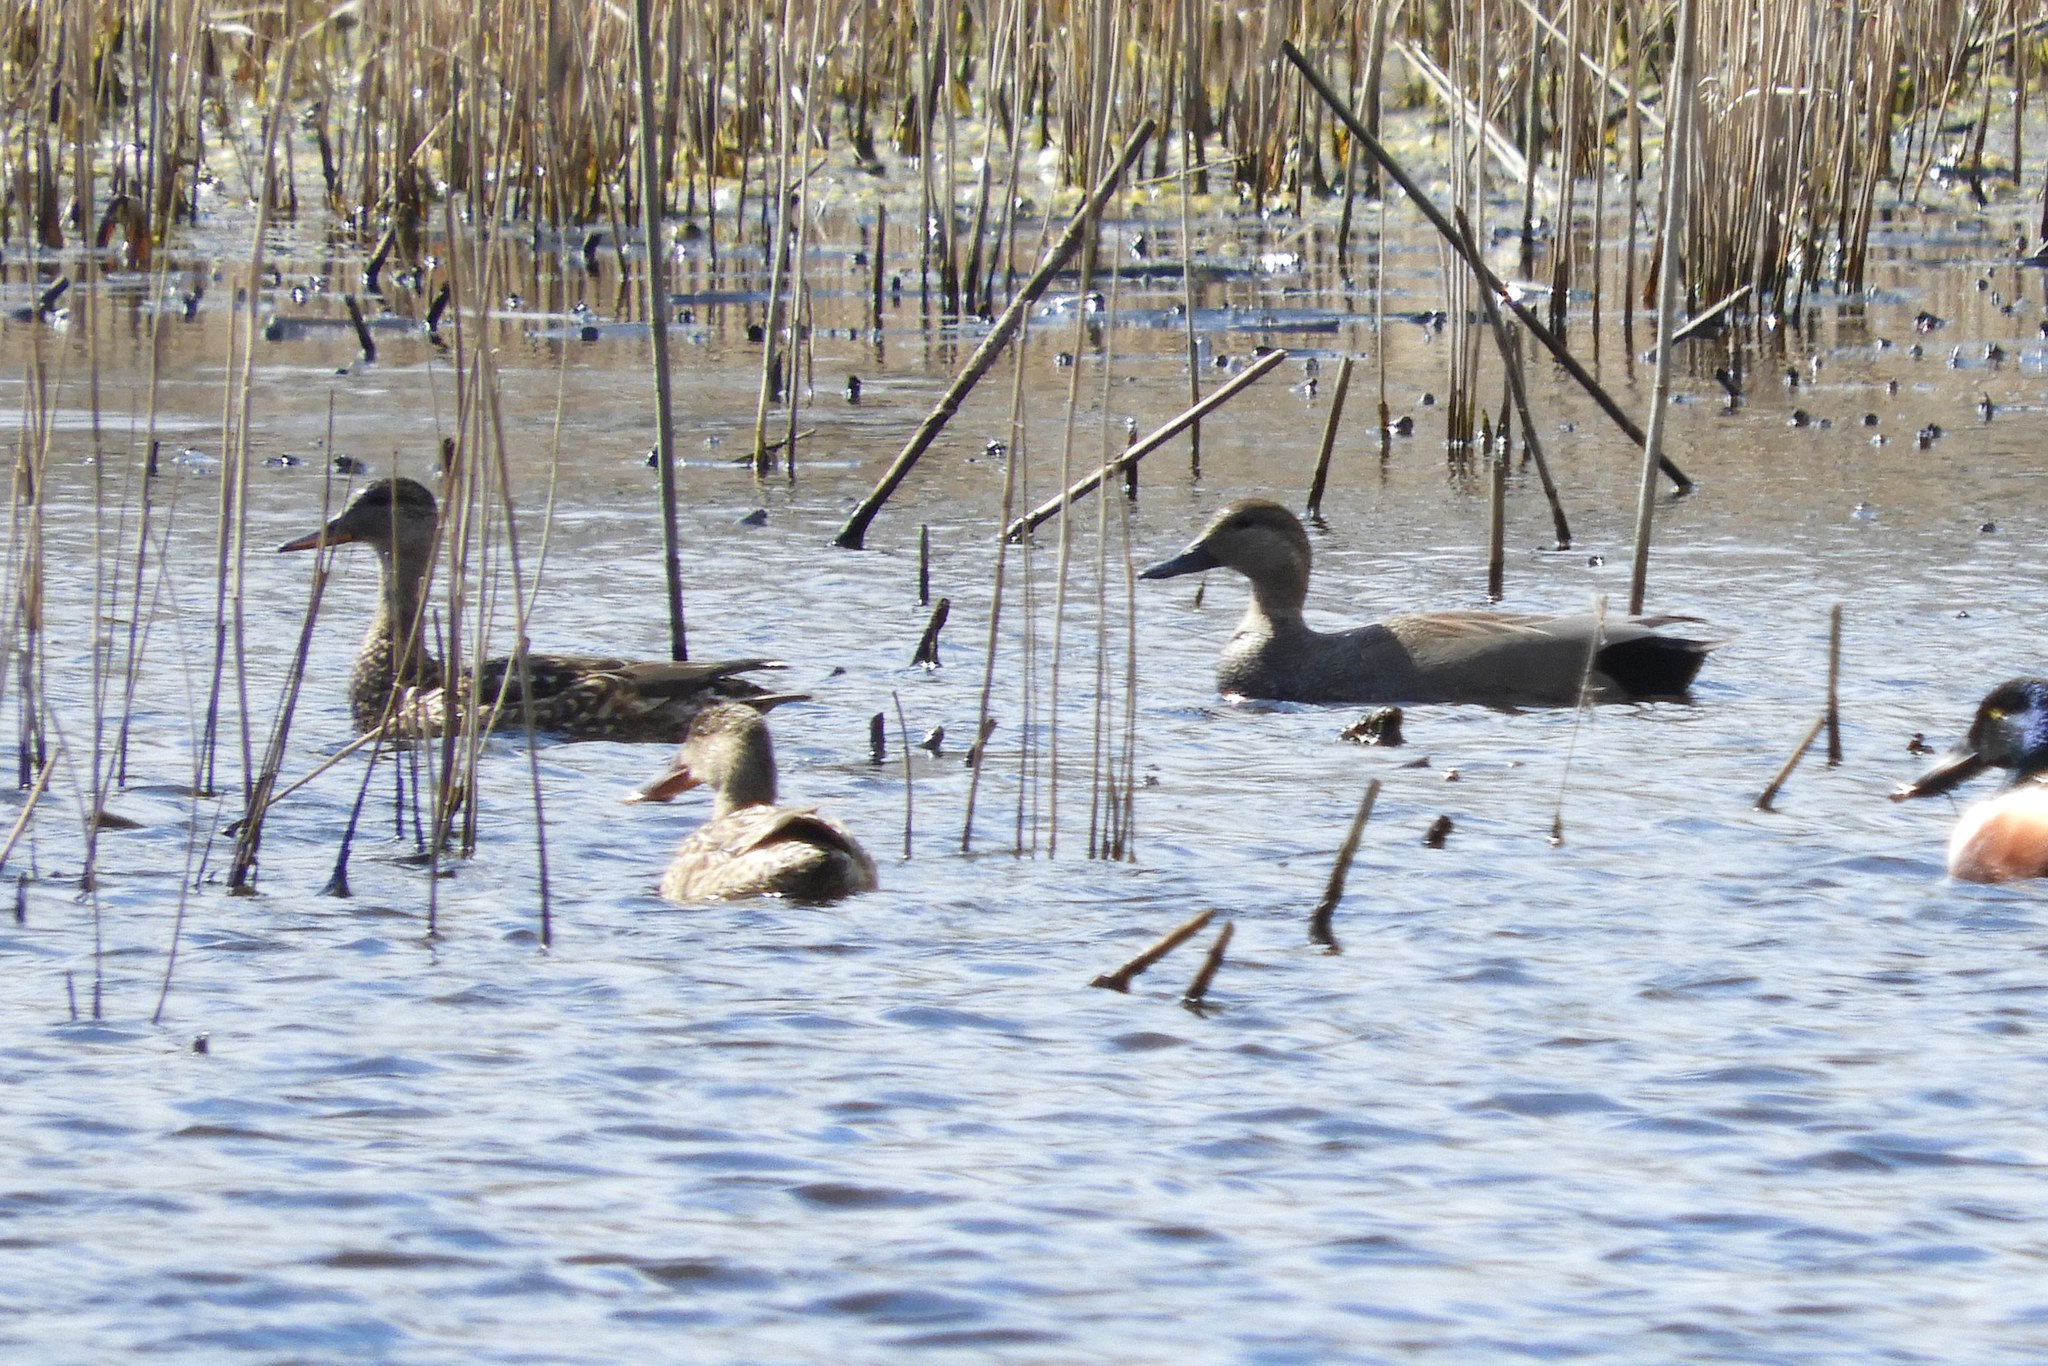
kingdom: Animalia
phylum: Chordata
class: Aves
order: Anseriformes
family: Anatidae
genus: Mareca
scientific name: Mareca strepera
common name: Gadwall
